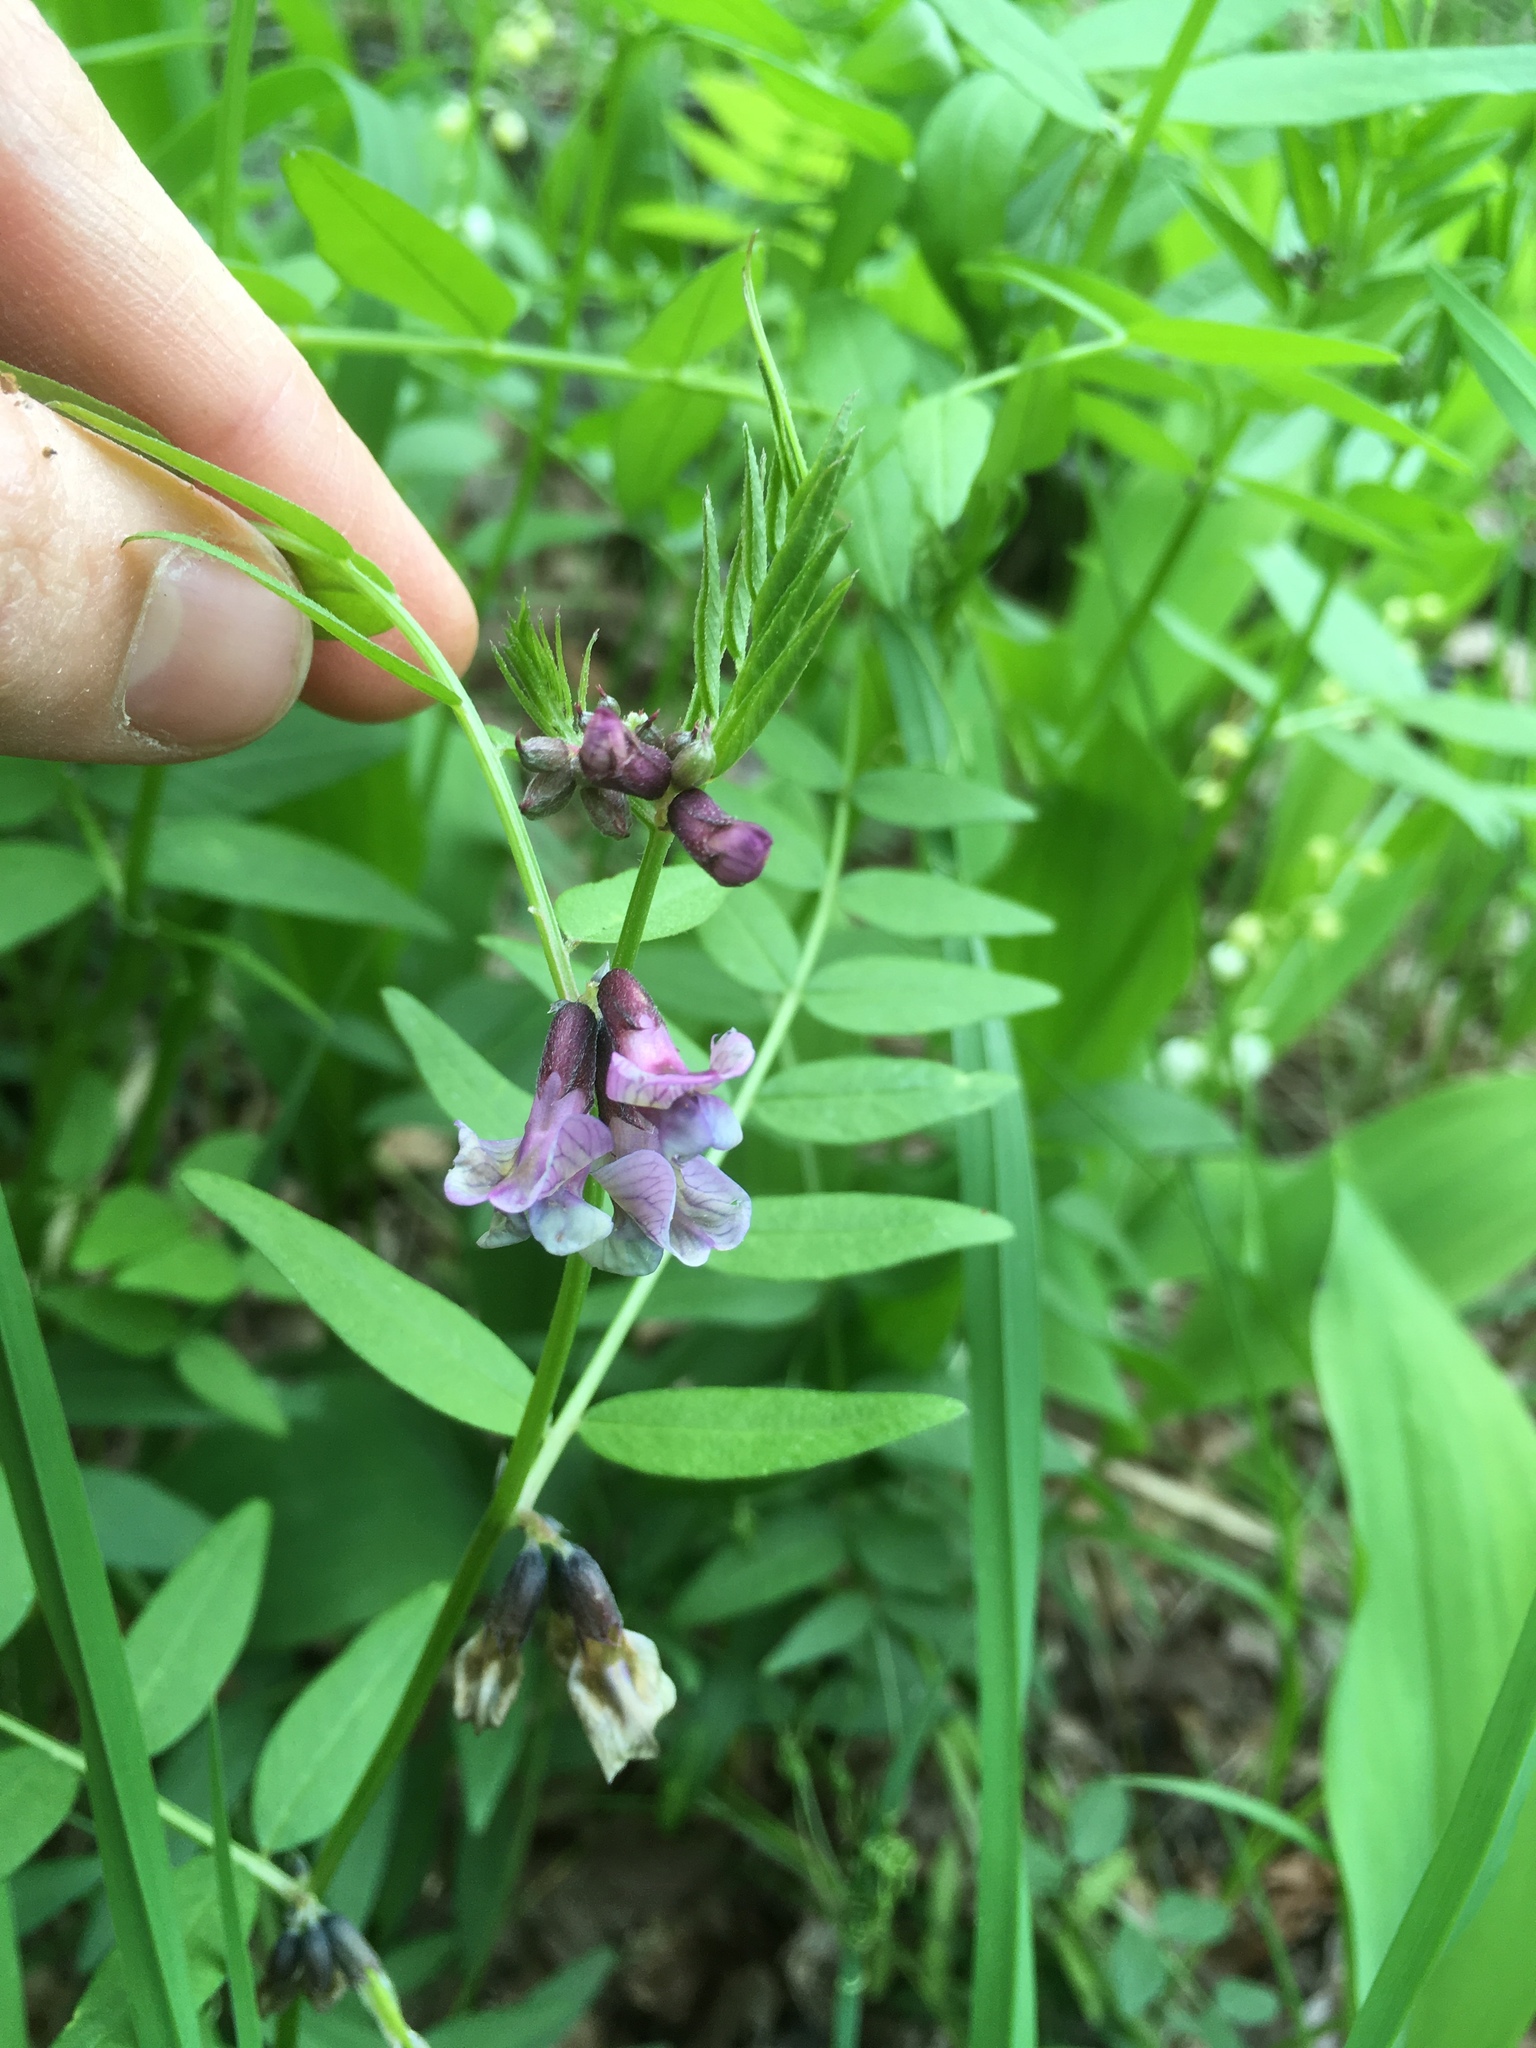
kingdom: Plantae
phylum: Tracheophyta
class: Magnoliopsida
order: Fabales
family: Fabaceae
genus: Vicia
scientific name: Vicia sepium
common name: Bush vetch
